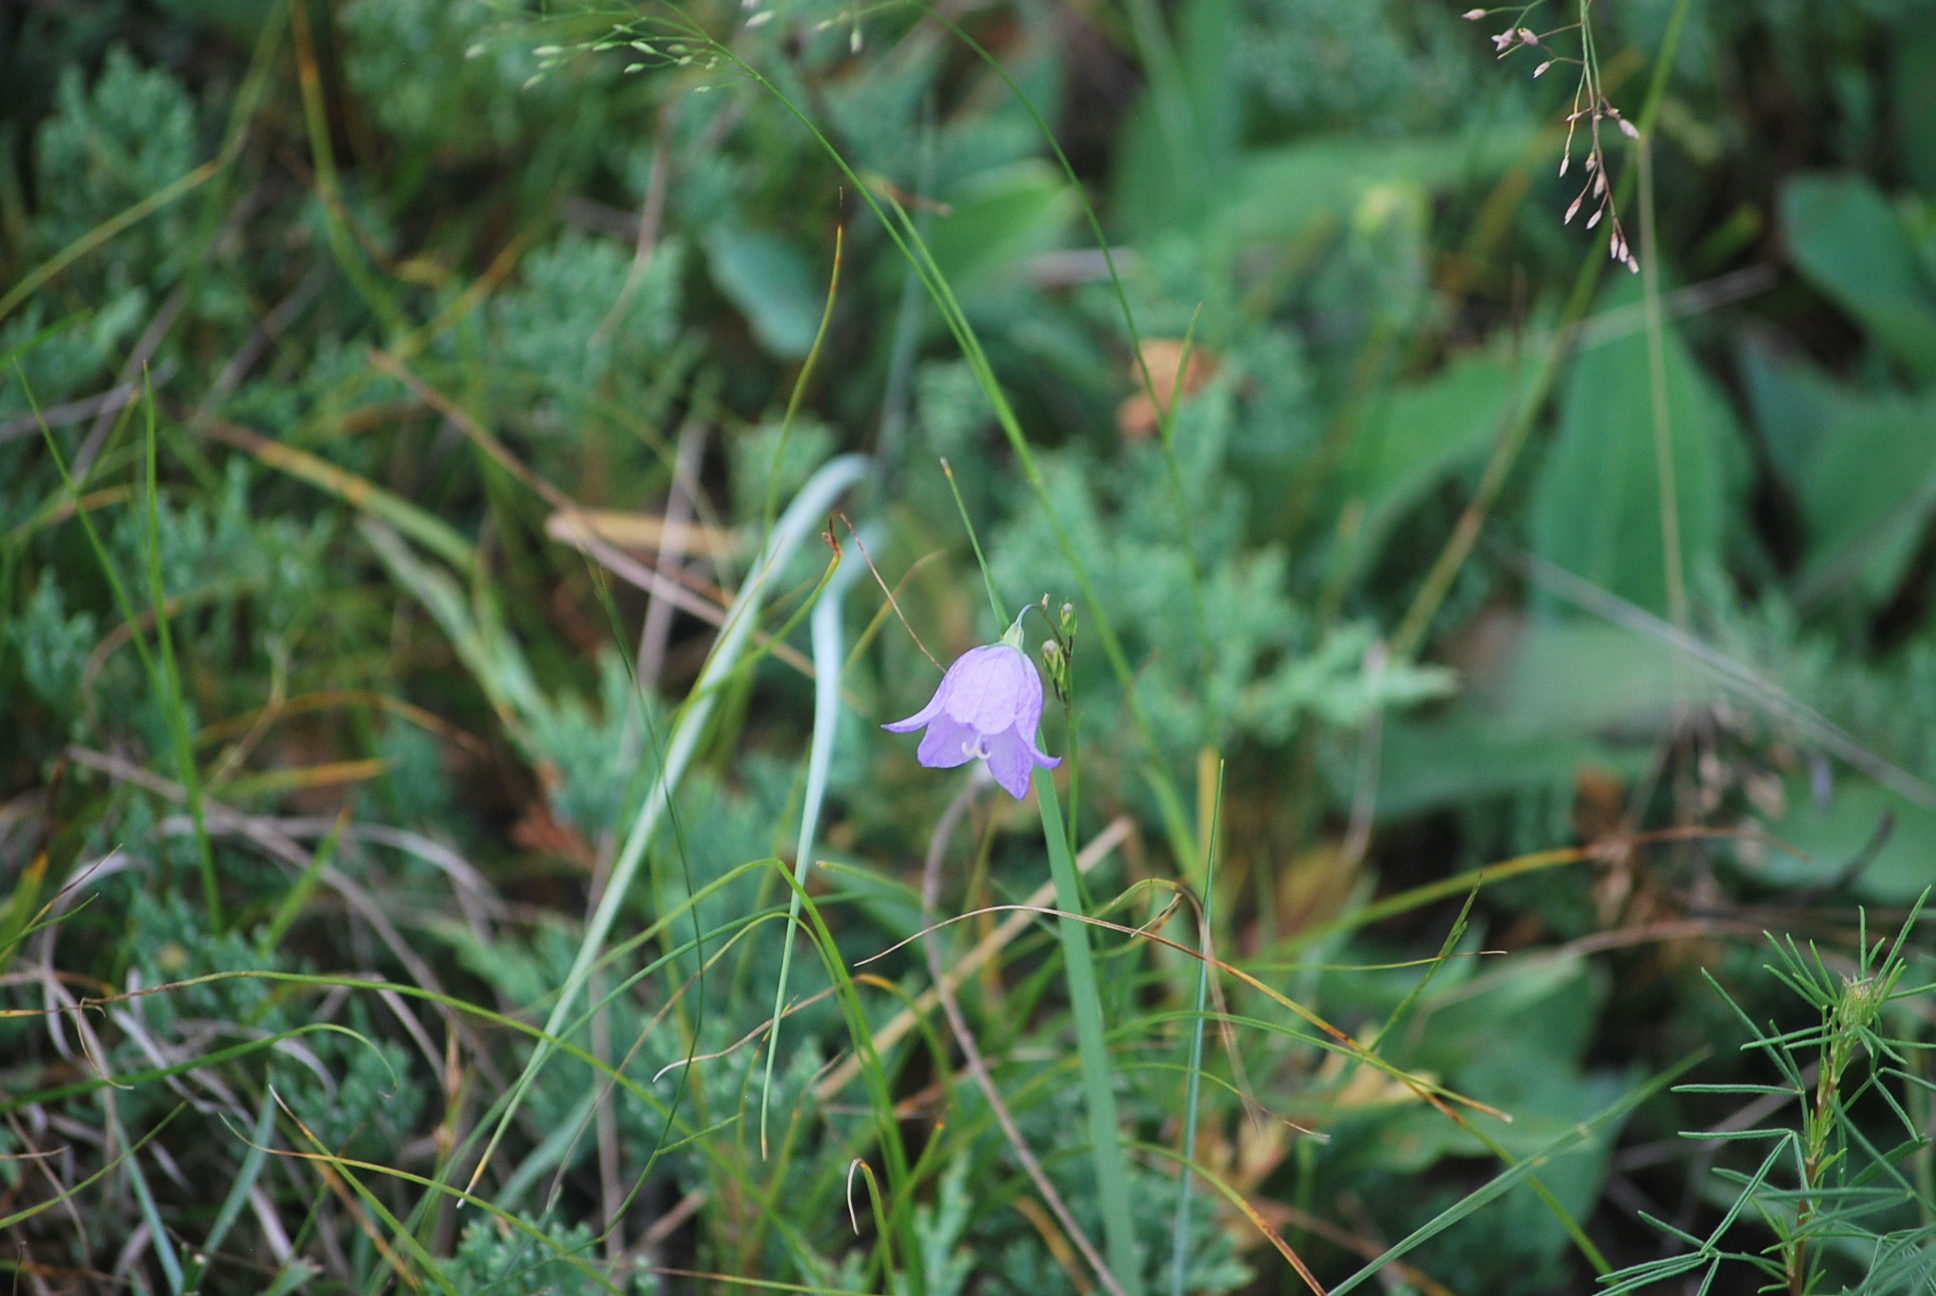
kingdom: Plantae
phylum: Tracheophyta
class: Magnoliopsida
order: Asterales
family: Campanulaceae
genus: Campanula
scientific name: Campanula alaskana
